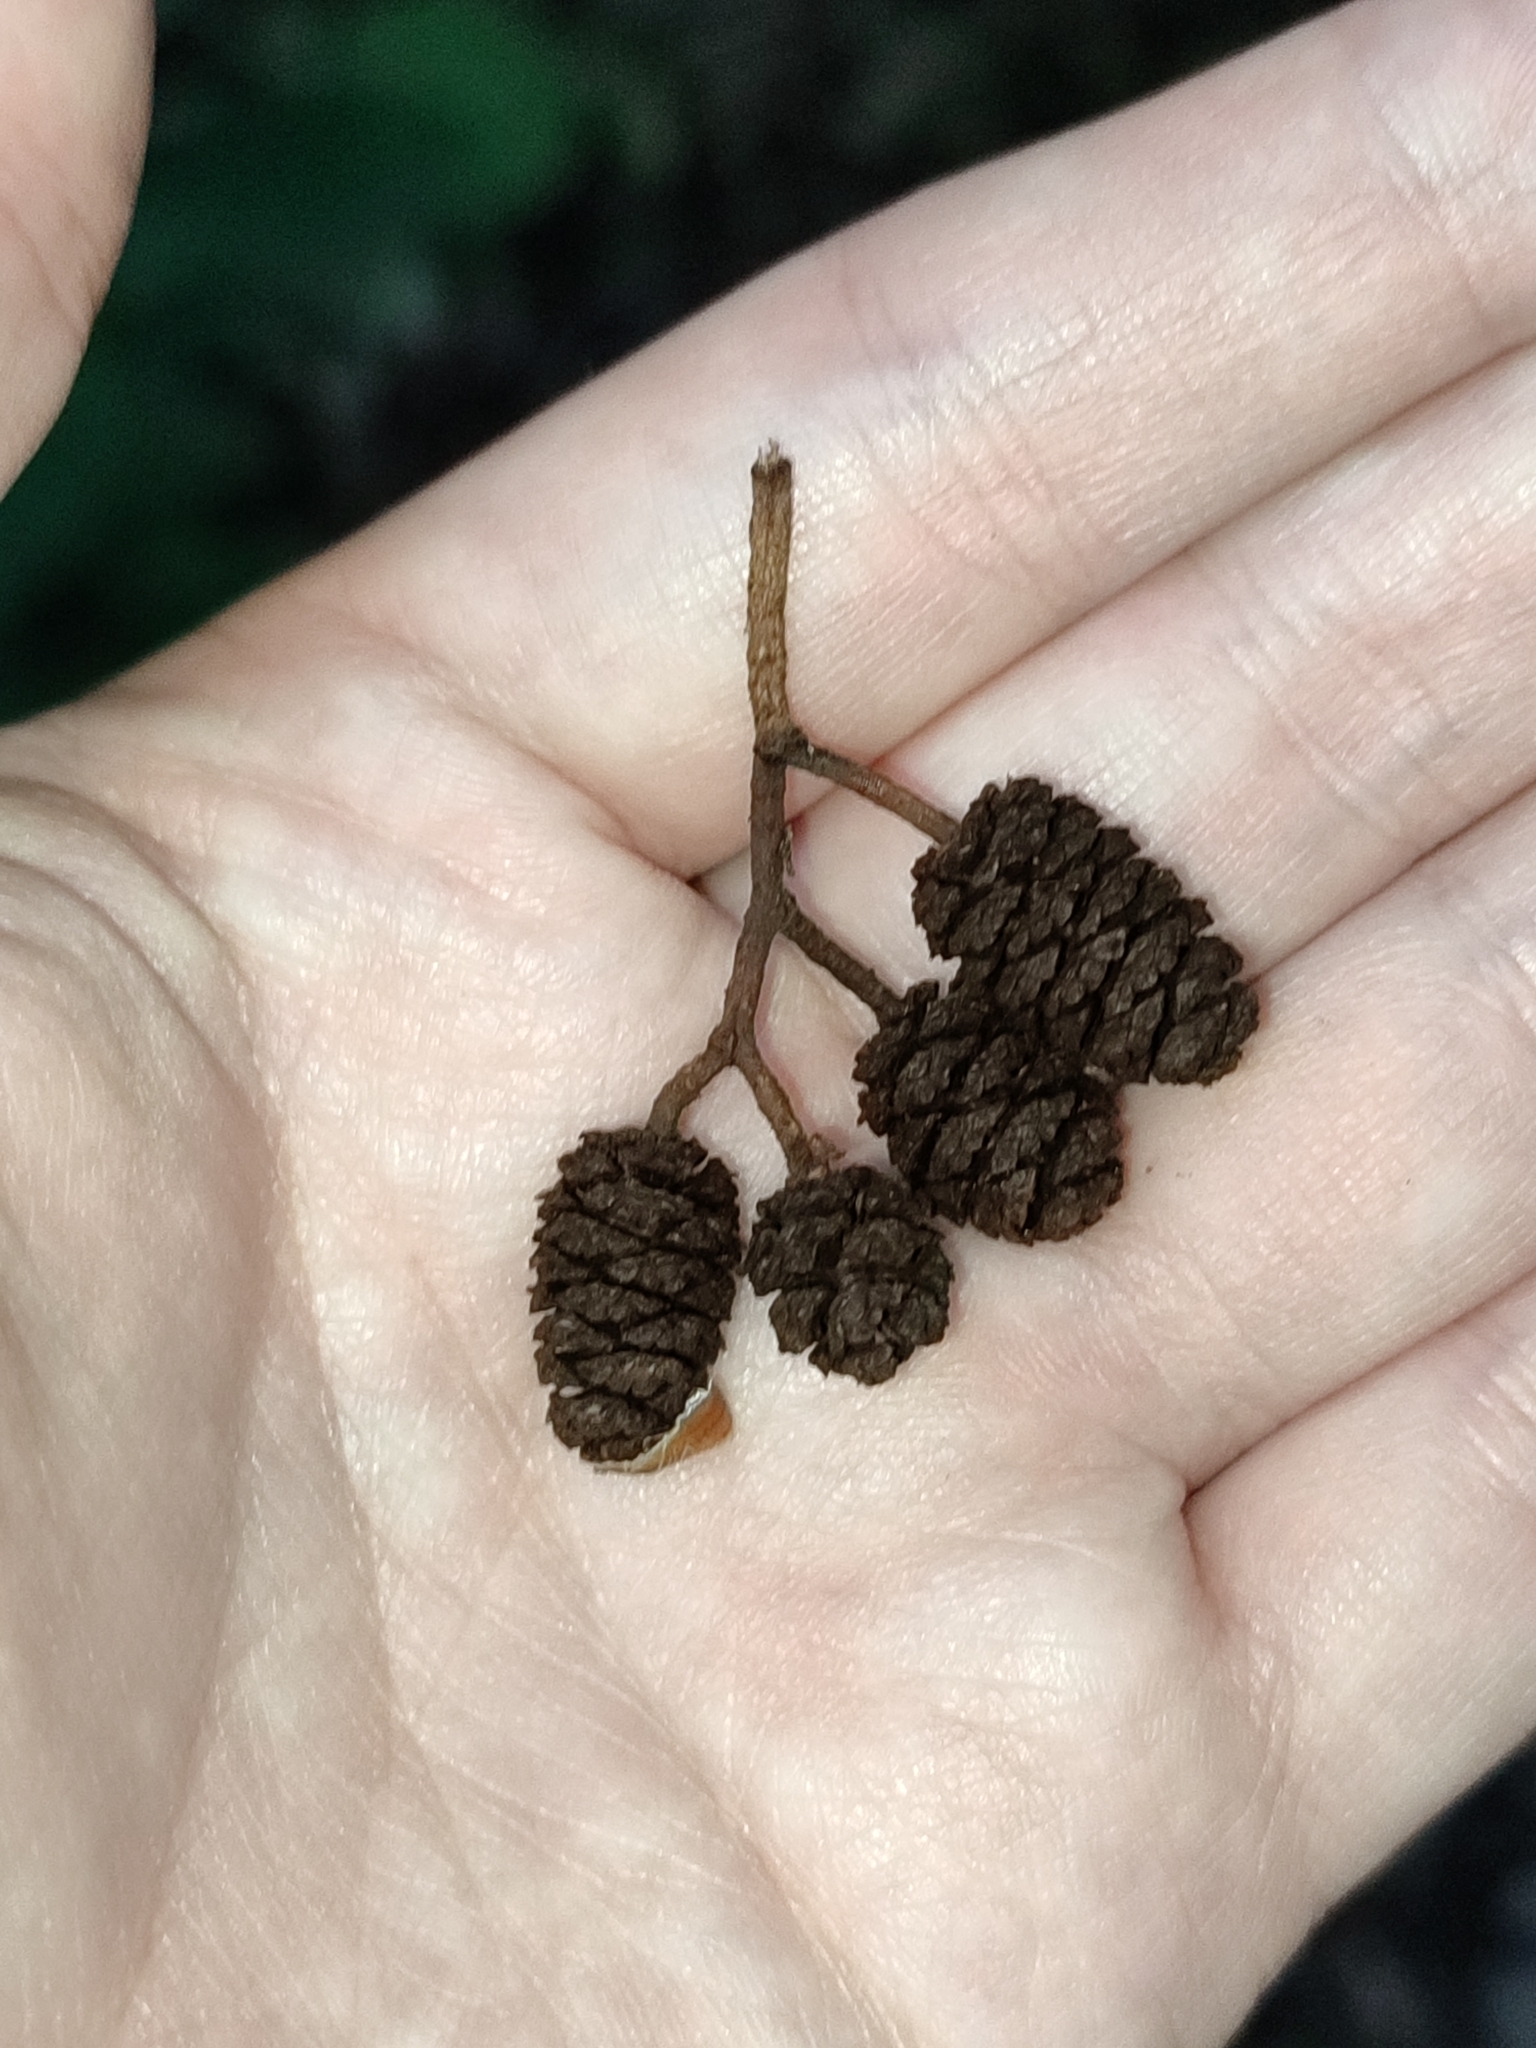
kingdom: Plantae
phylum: Tracheophyta
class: Magnoliopsida
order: Fagales
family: Betulaceae
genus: Alnus
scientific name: Alnus glutinosa
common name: Black alder
